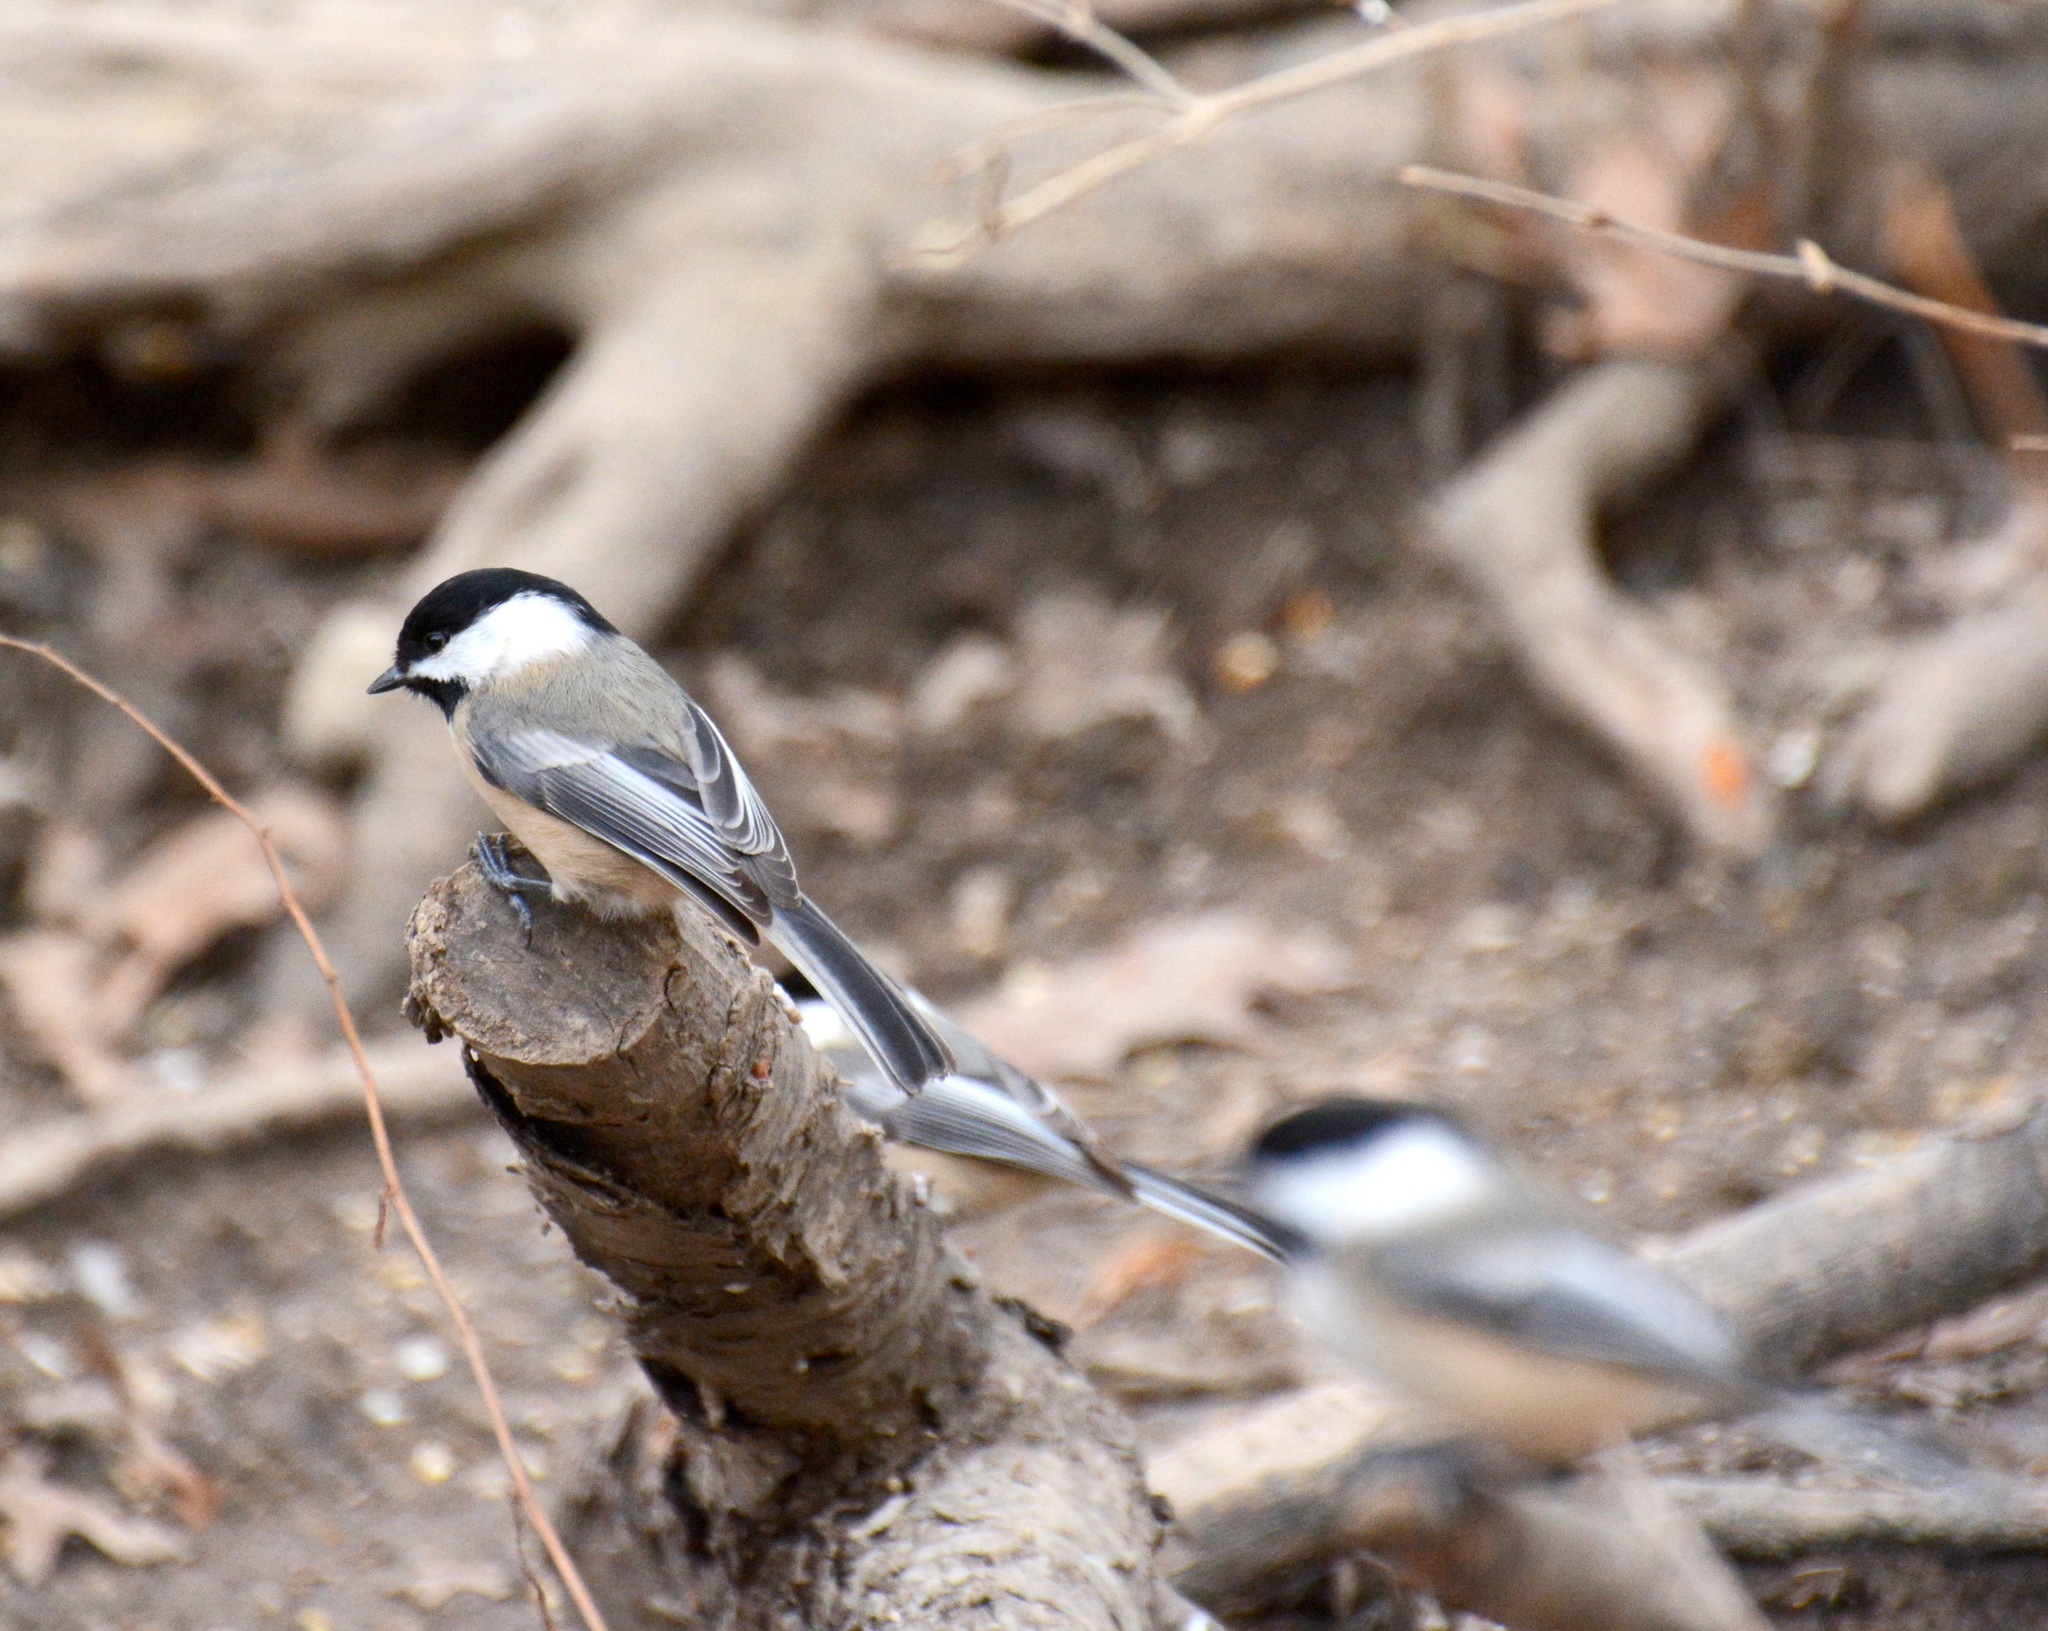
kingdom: Animalia
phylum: Chordata
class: Aves
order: Passeriformes
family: Paridae
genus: Poecile
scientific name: Poecile atricapillus
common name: Black-capped chickadee
